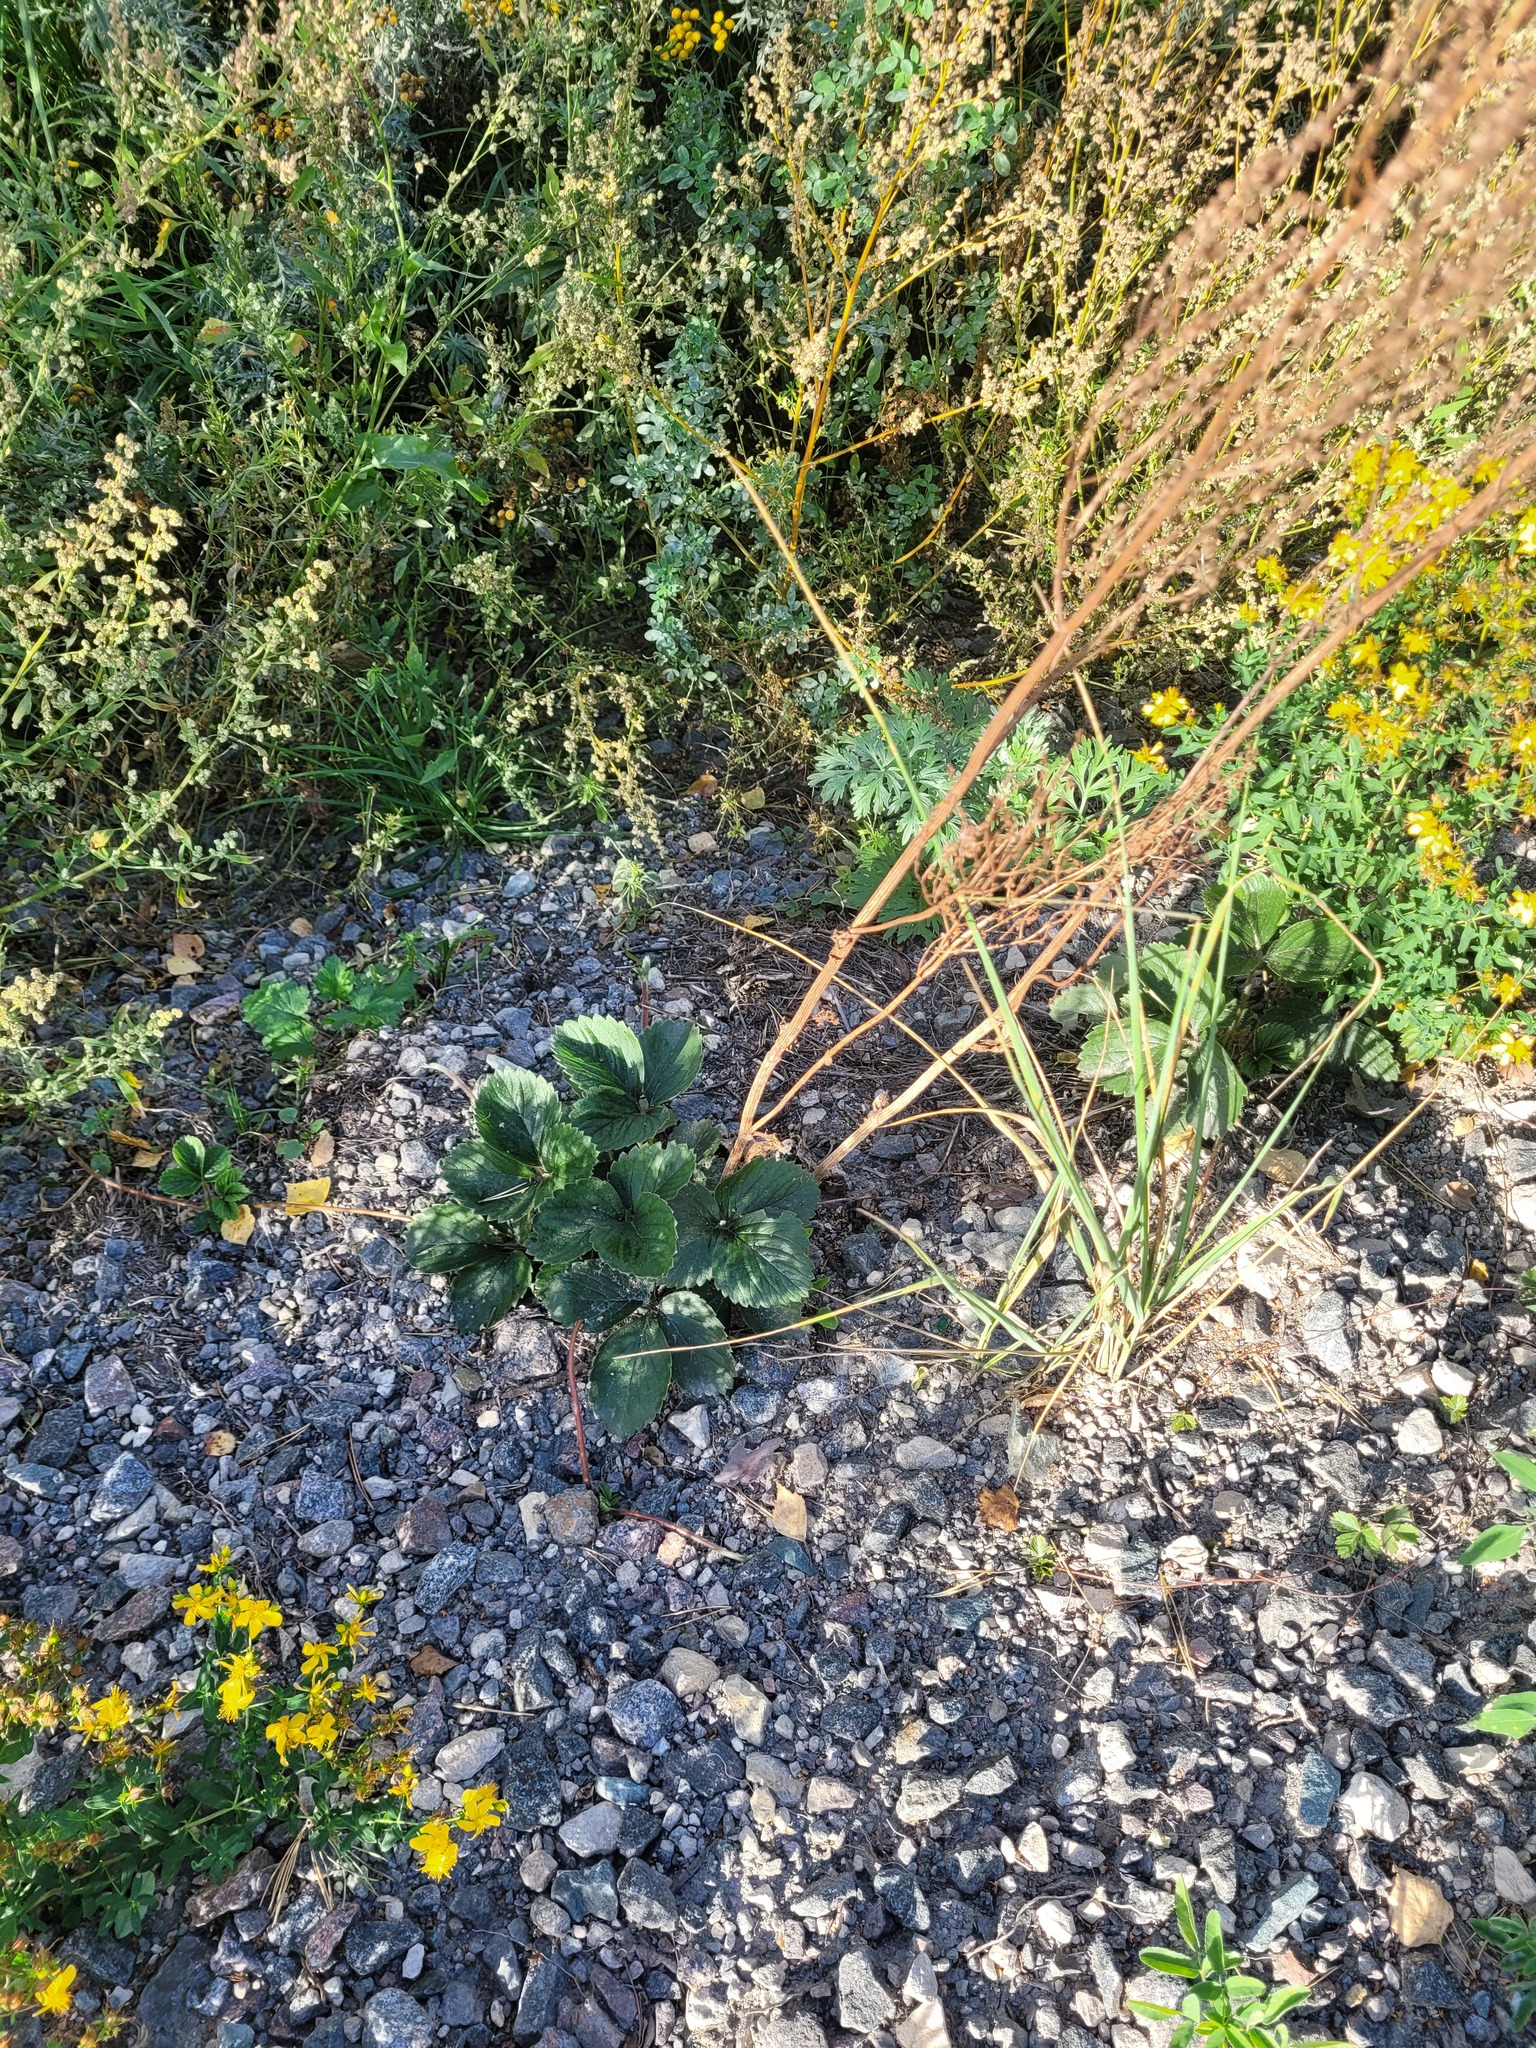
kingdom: Plantae
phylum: Tracheophyta
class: Magnoliopsida
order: Rosales
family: Rosaceae
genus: Fragaria
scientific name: Fragaria ananassa
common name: Garden strawberry
